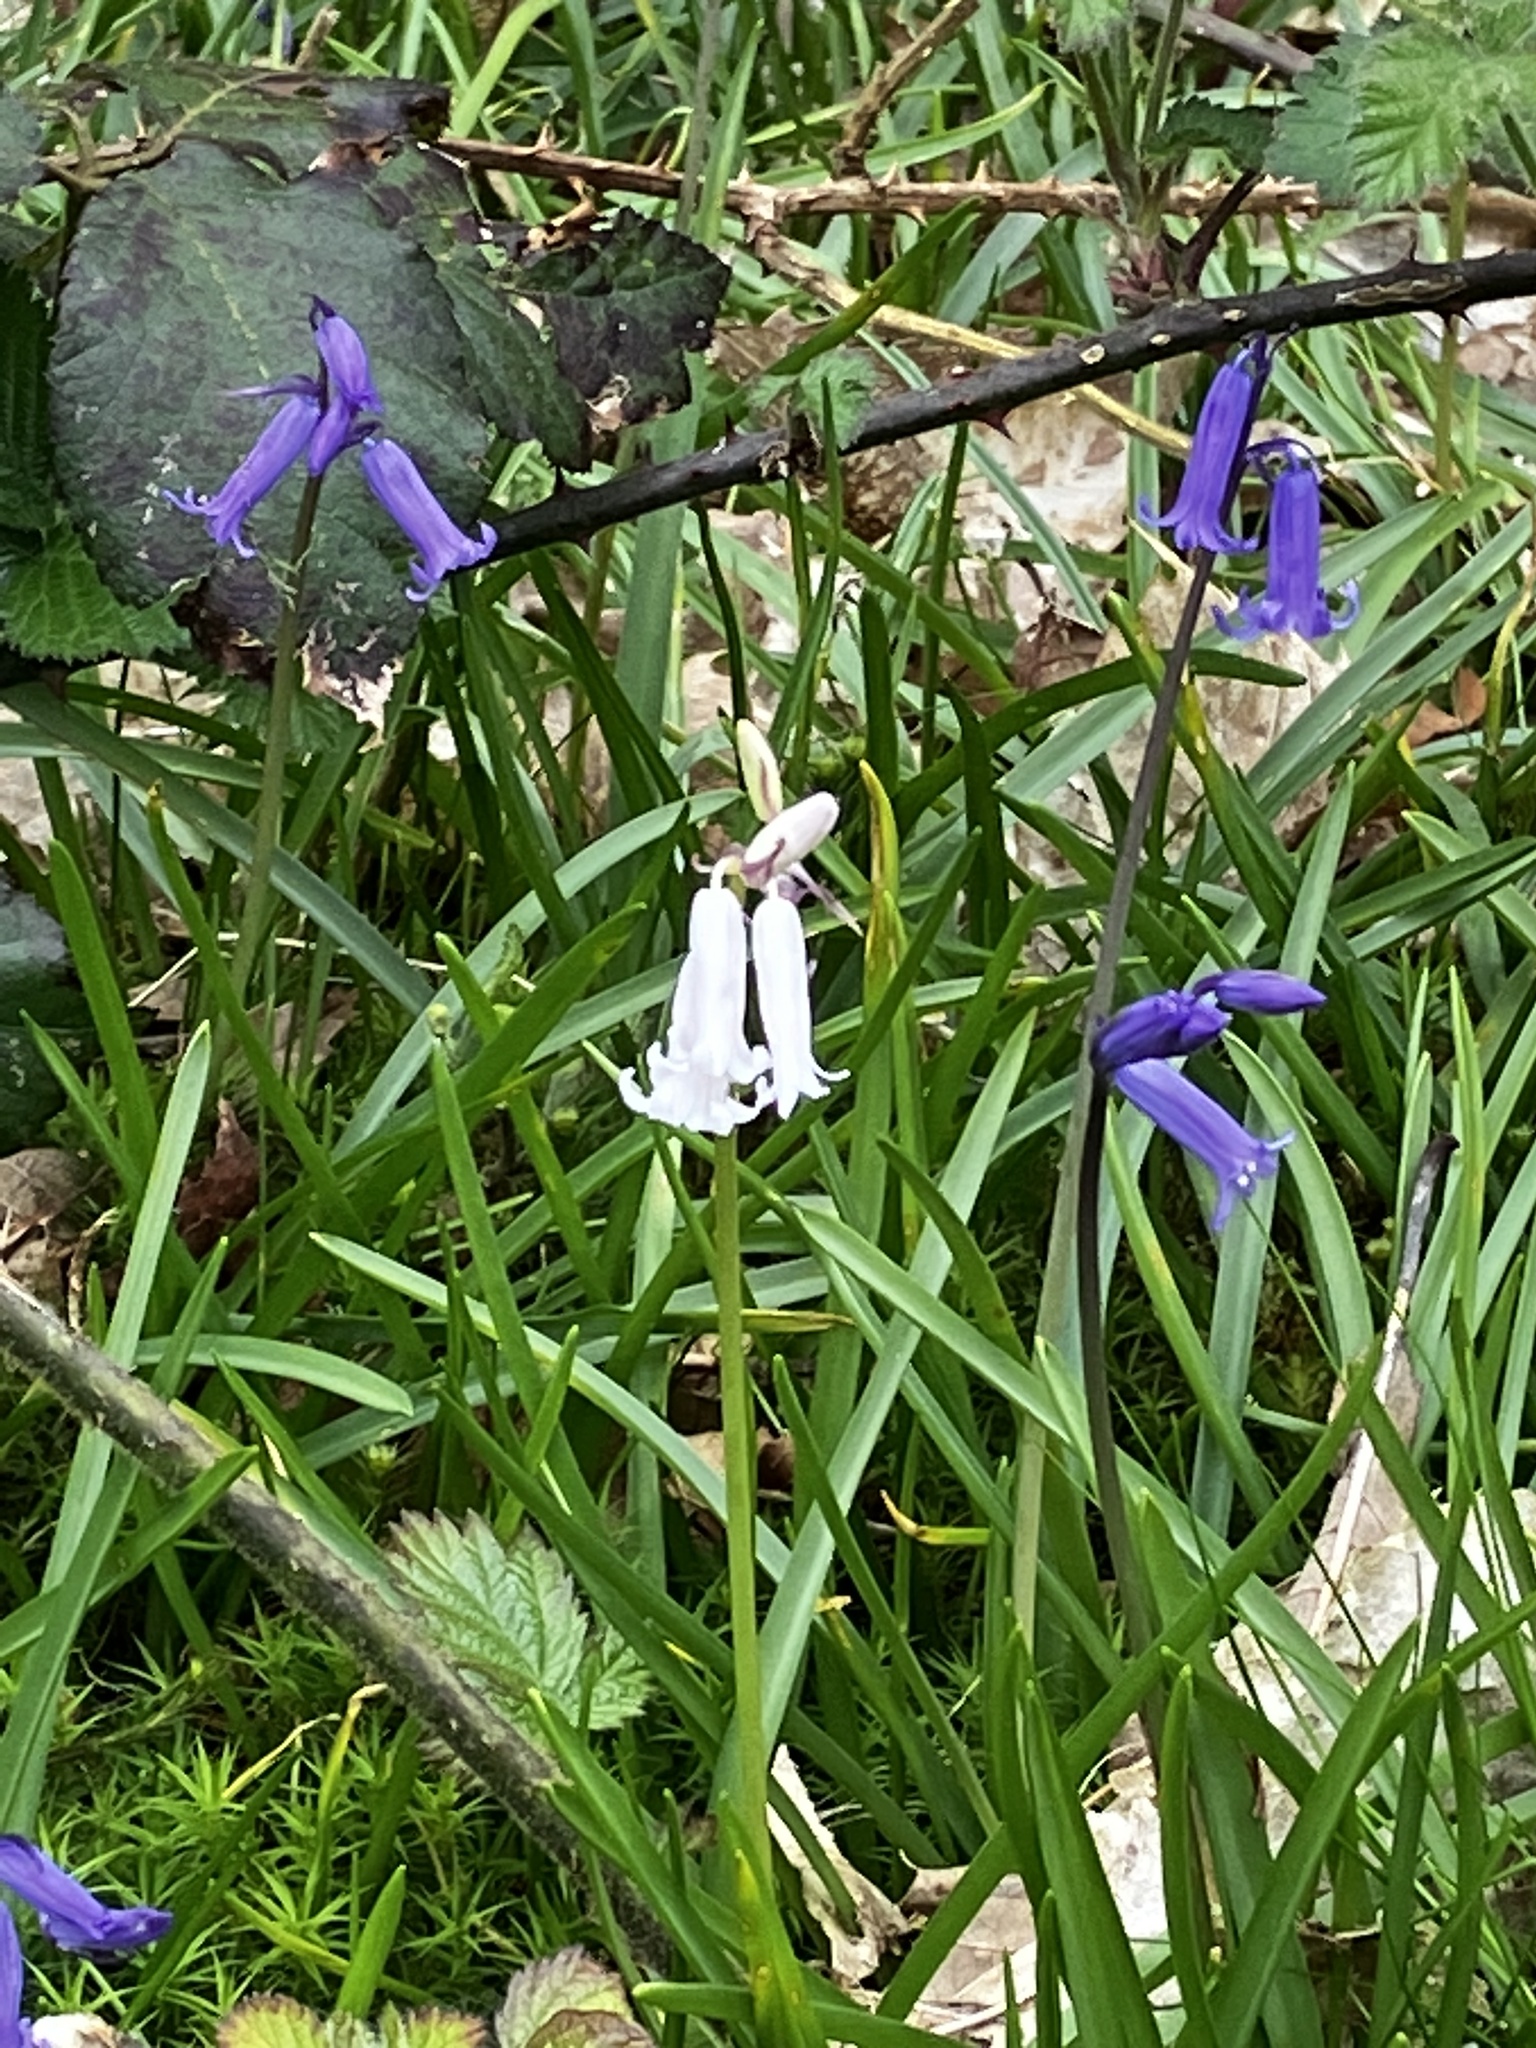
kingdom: Plantae
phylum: Tracheophyta
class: Liliopsida
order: Asparagales
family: Asparagaceae
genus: Hyacinthoides
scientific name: Hyacinthoides non-scripta
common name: Bluebell
